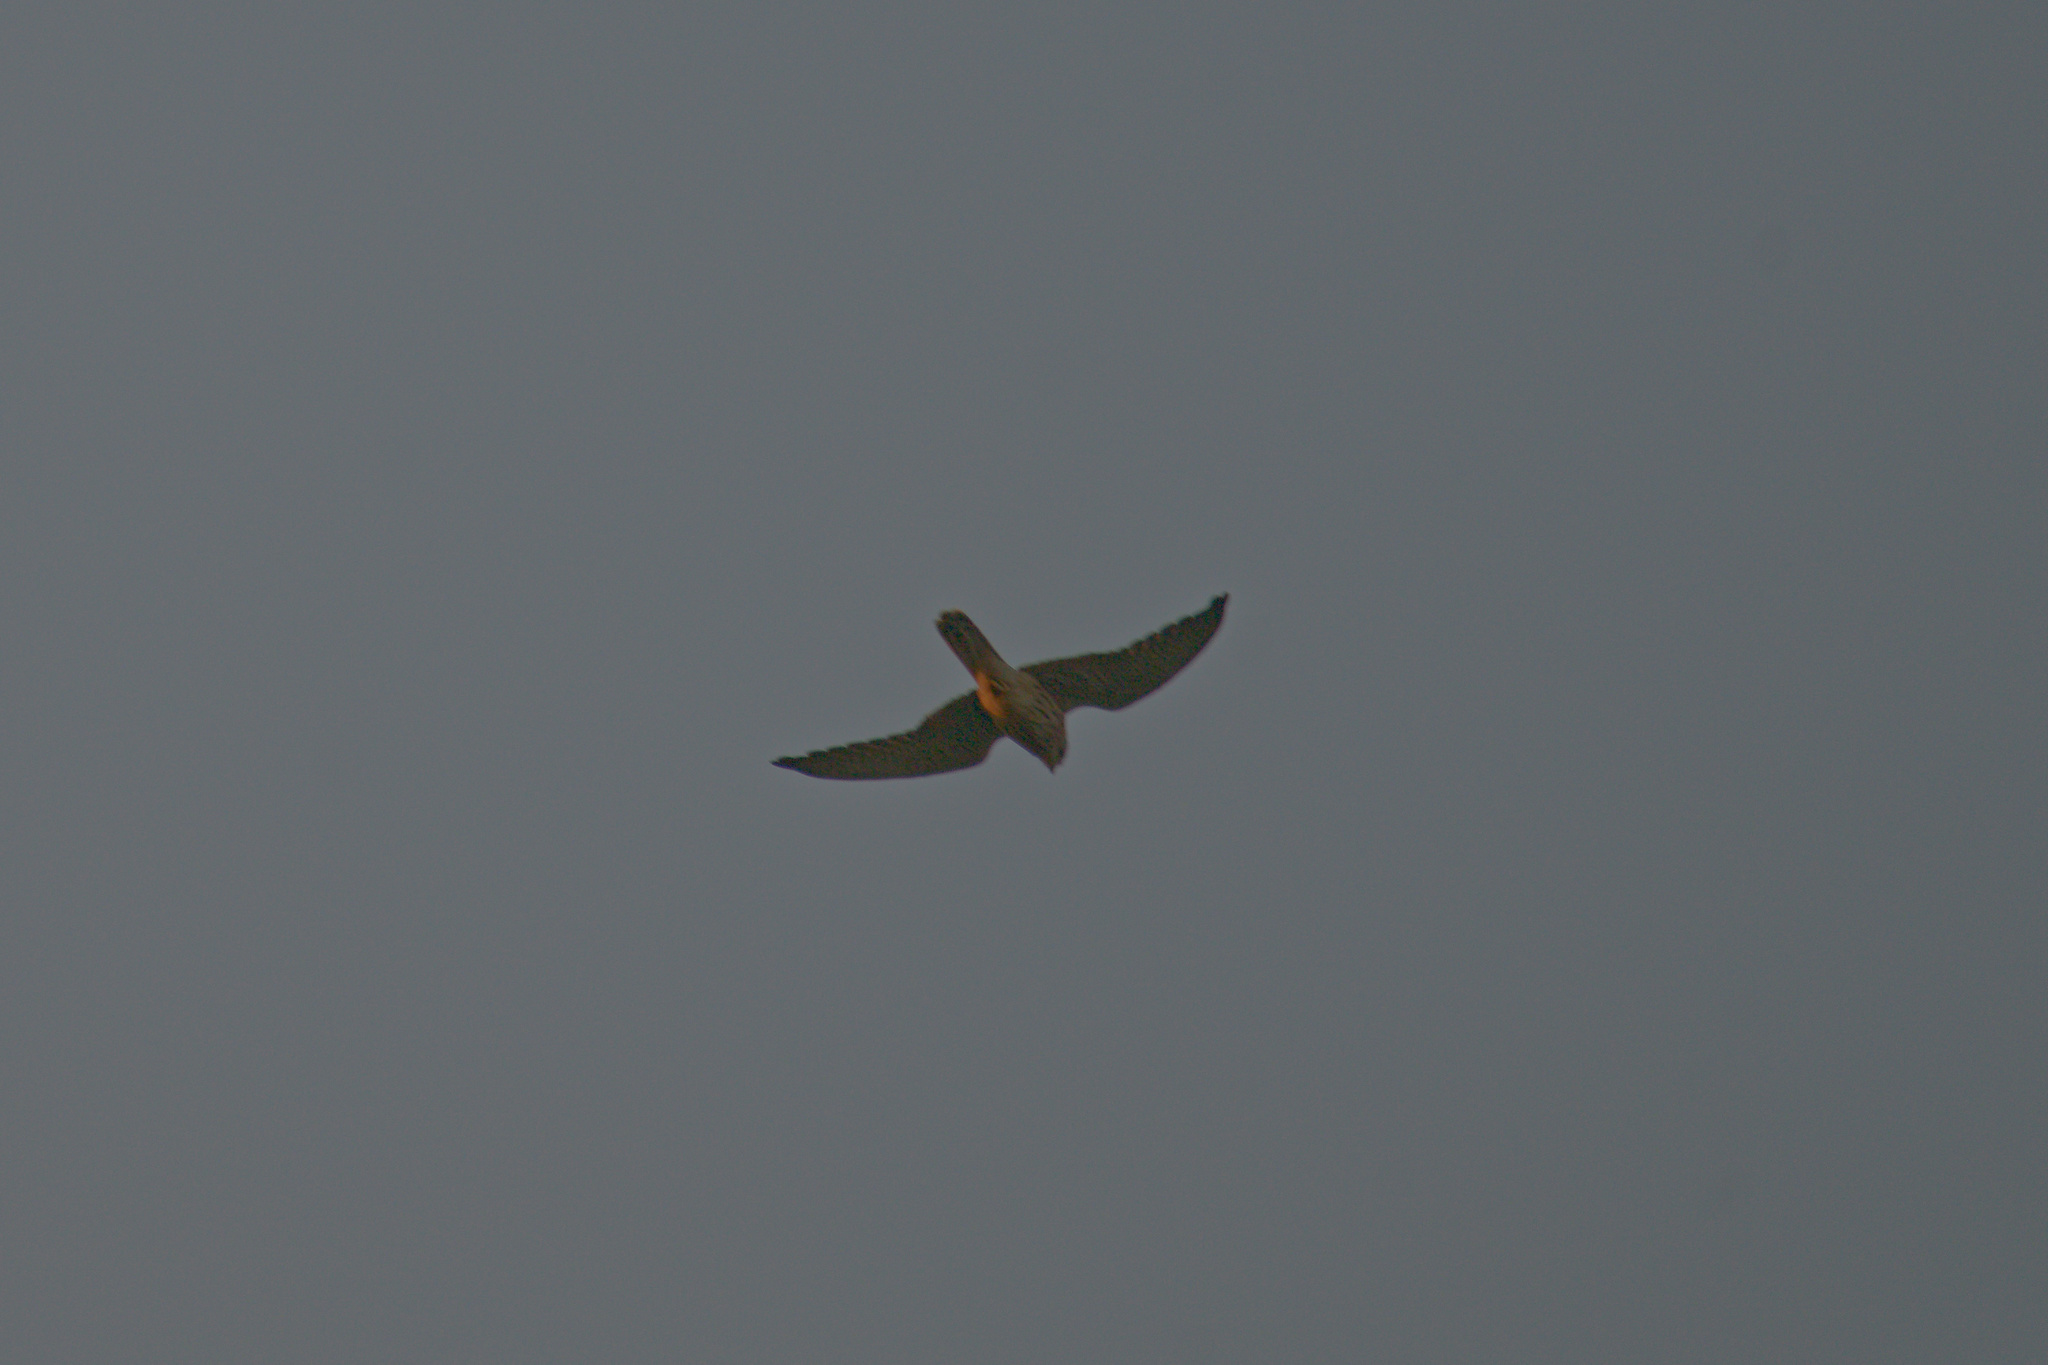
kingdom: Animalia
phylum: Chordata
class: Aves
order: Falconiformes
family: Falconidae
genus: Falco
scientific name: Falco subbuteo
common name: Eurasian hobby
